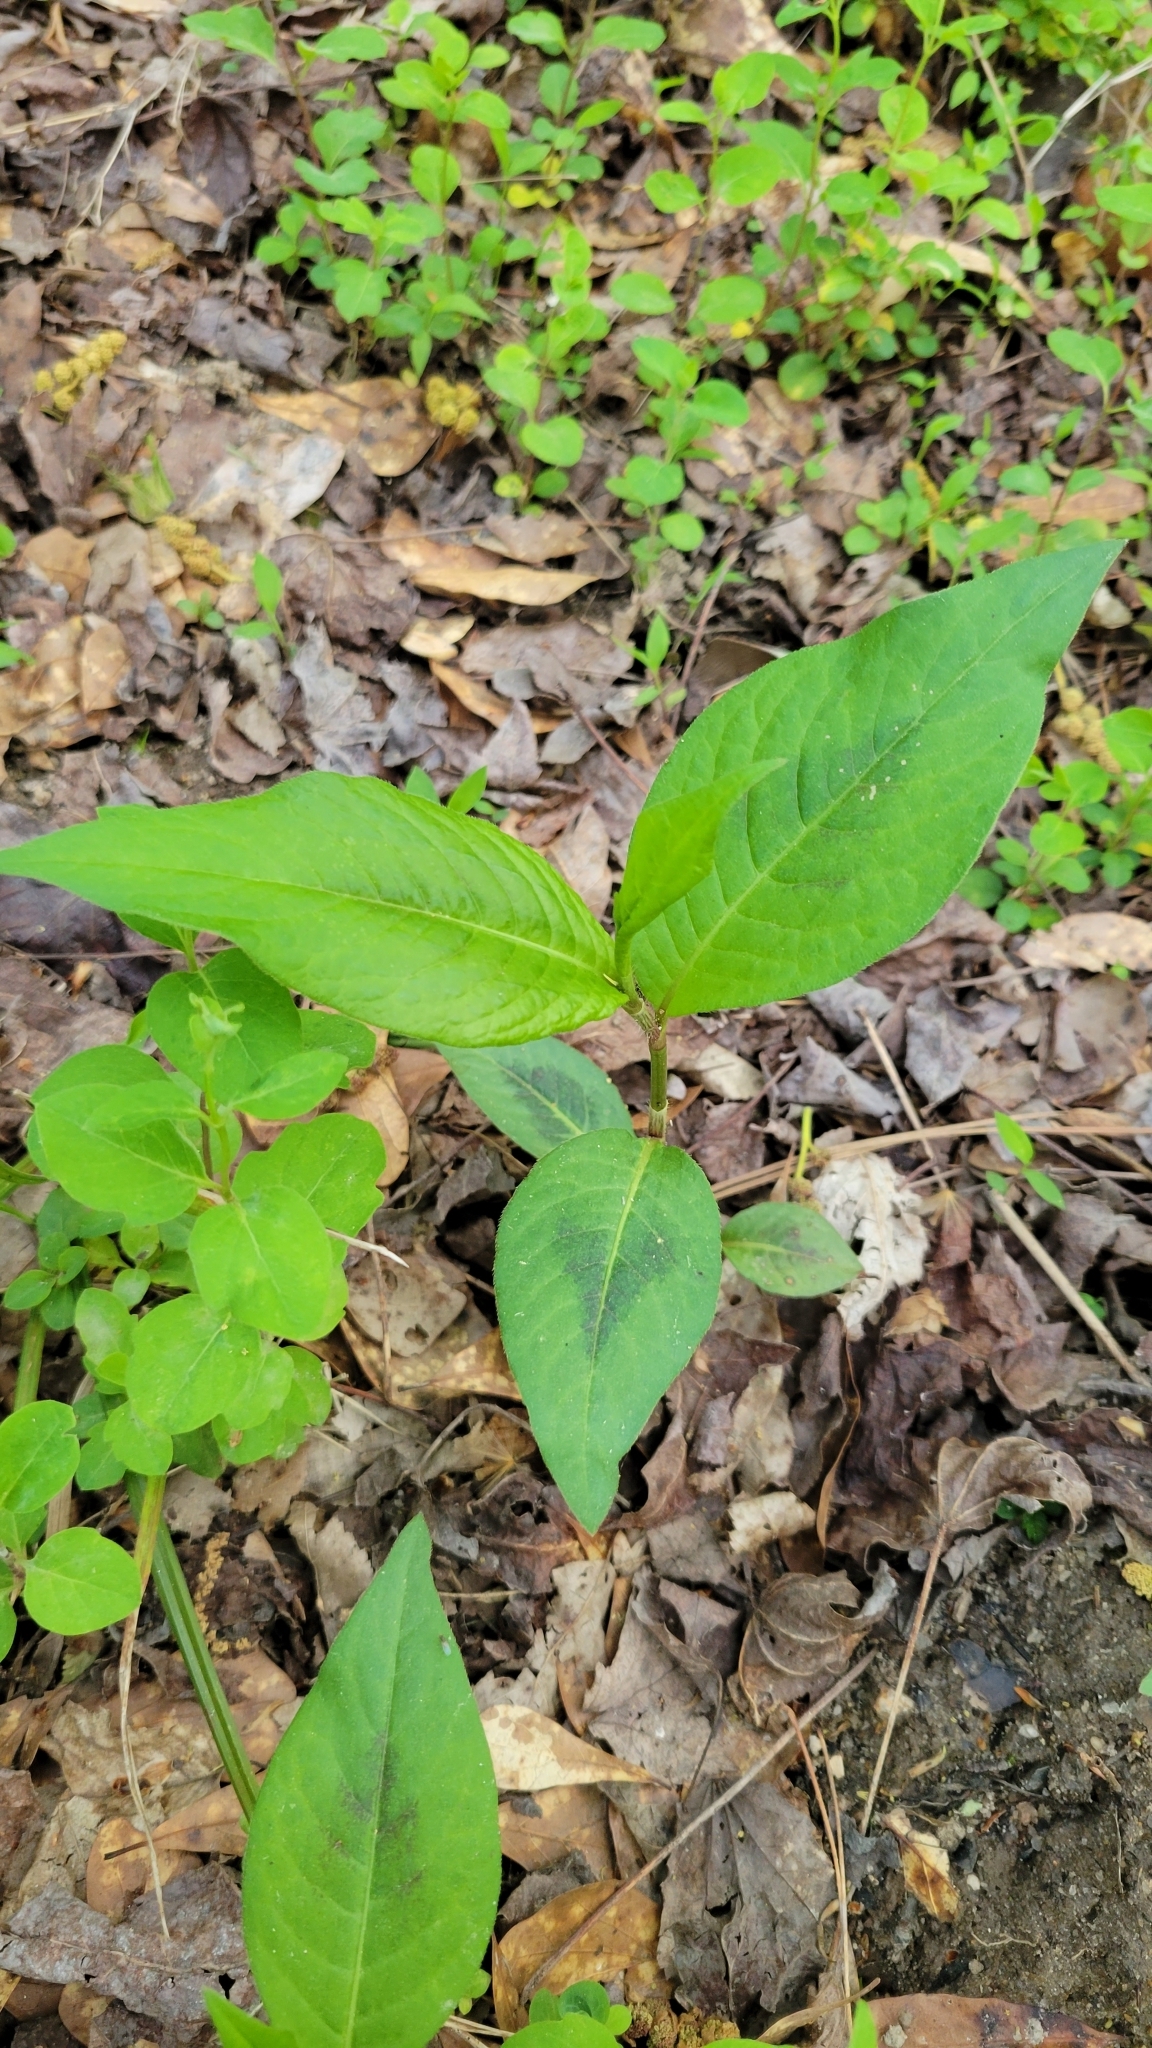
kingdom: Plantae
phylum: Tracheophyta
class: Magnoliopsida
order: Caryophyllales
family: Polygonaceae
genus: Persicaria
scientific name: Persicaria virginiana
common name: Jumpseed
